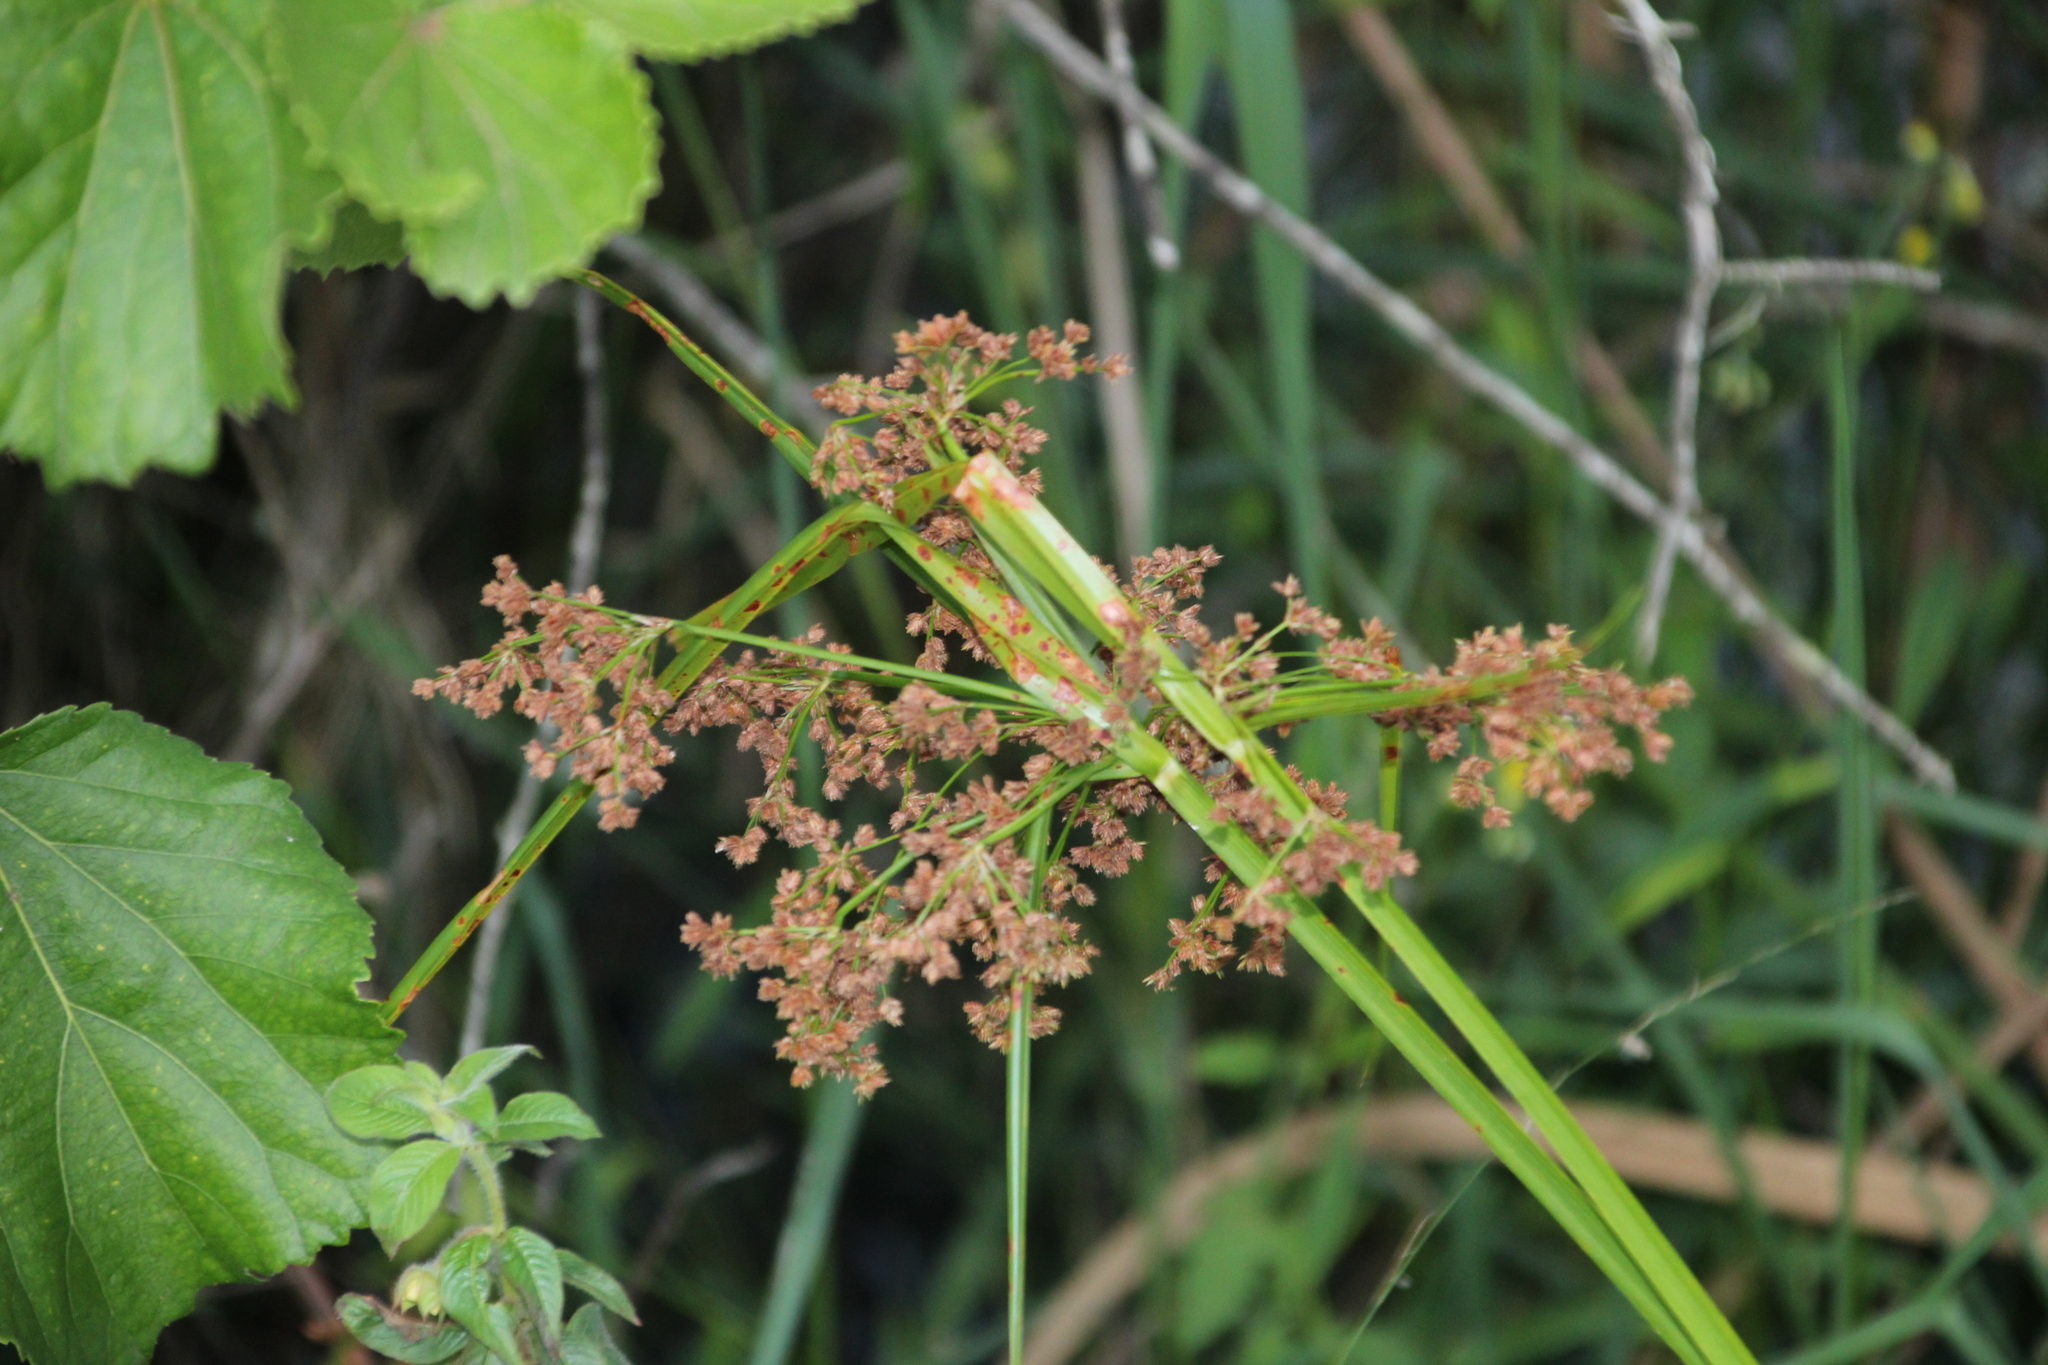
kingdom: Plantae
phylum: Tracheophyta
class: Liliopsida
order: Poales
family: Cyperaceae
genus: Cyperus
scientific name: Cyperus pulcher
